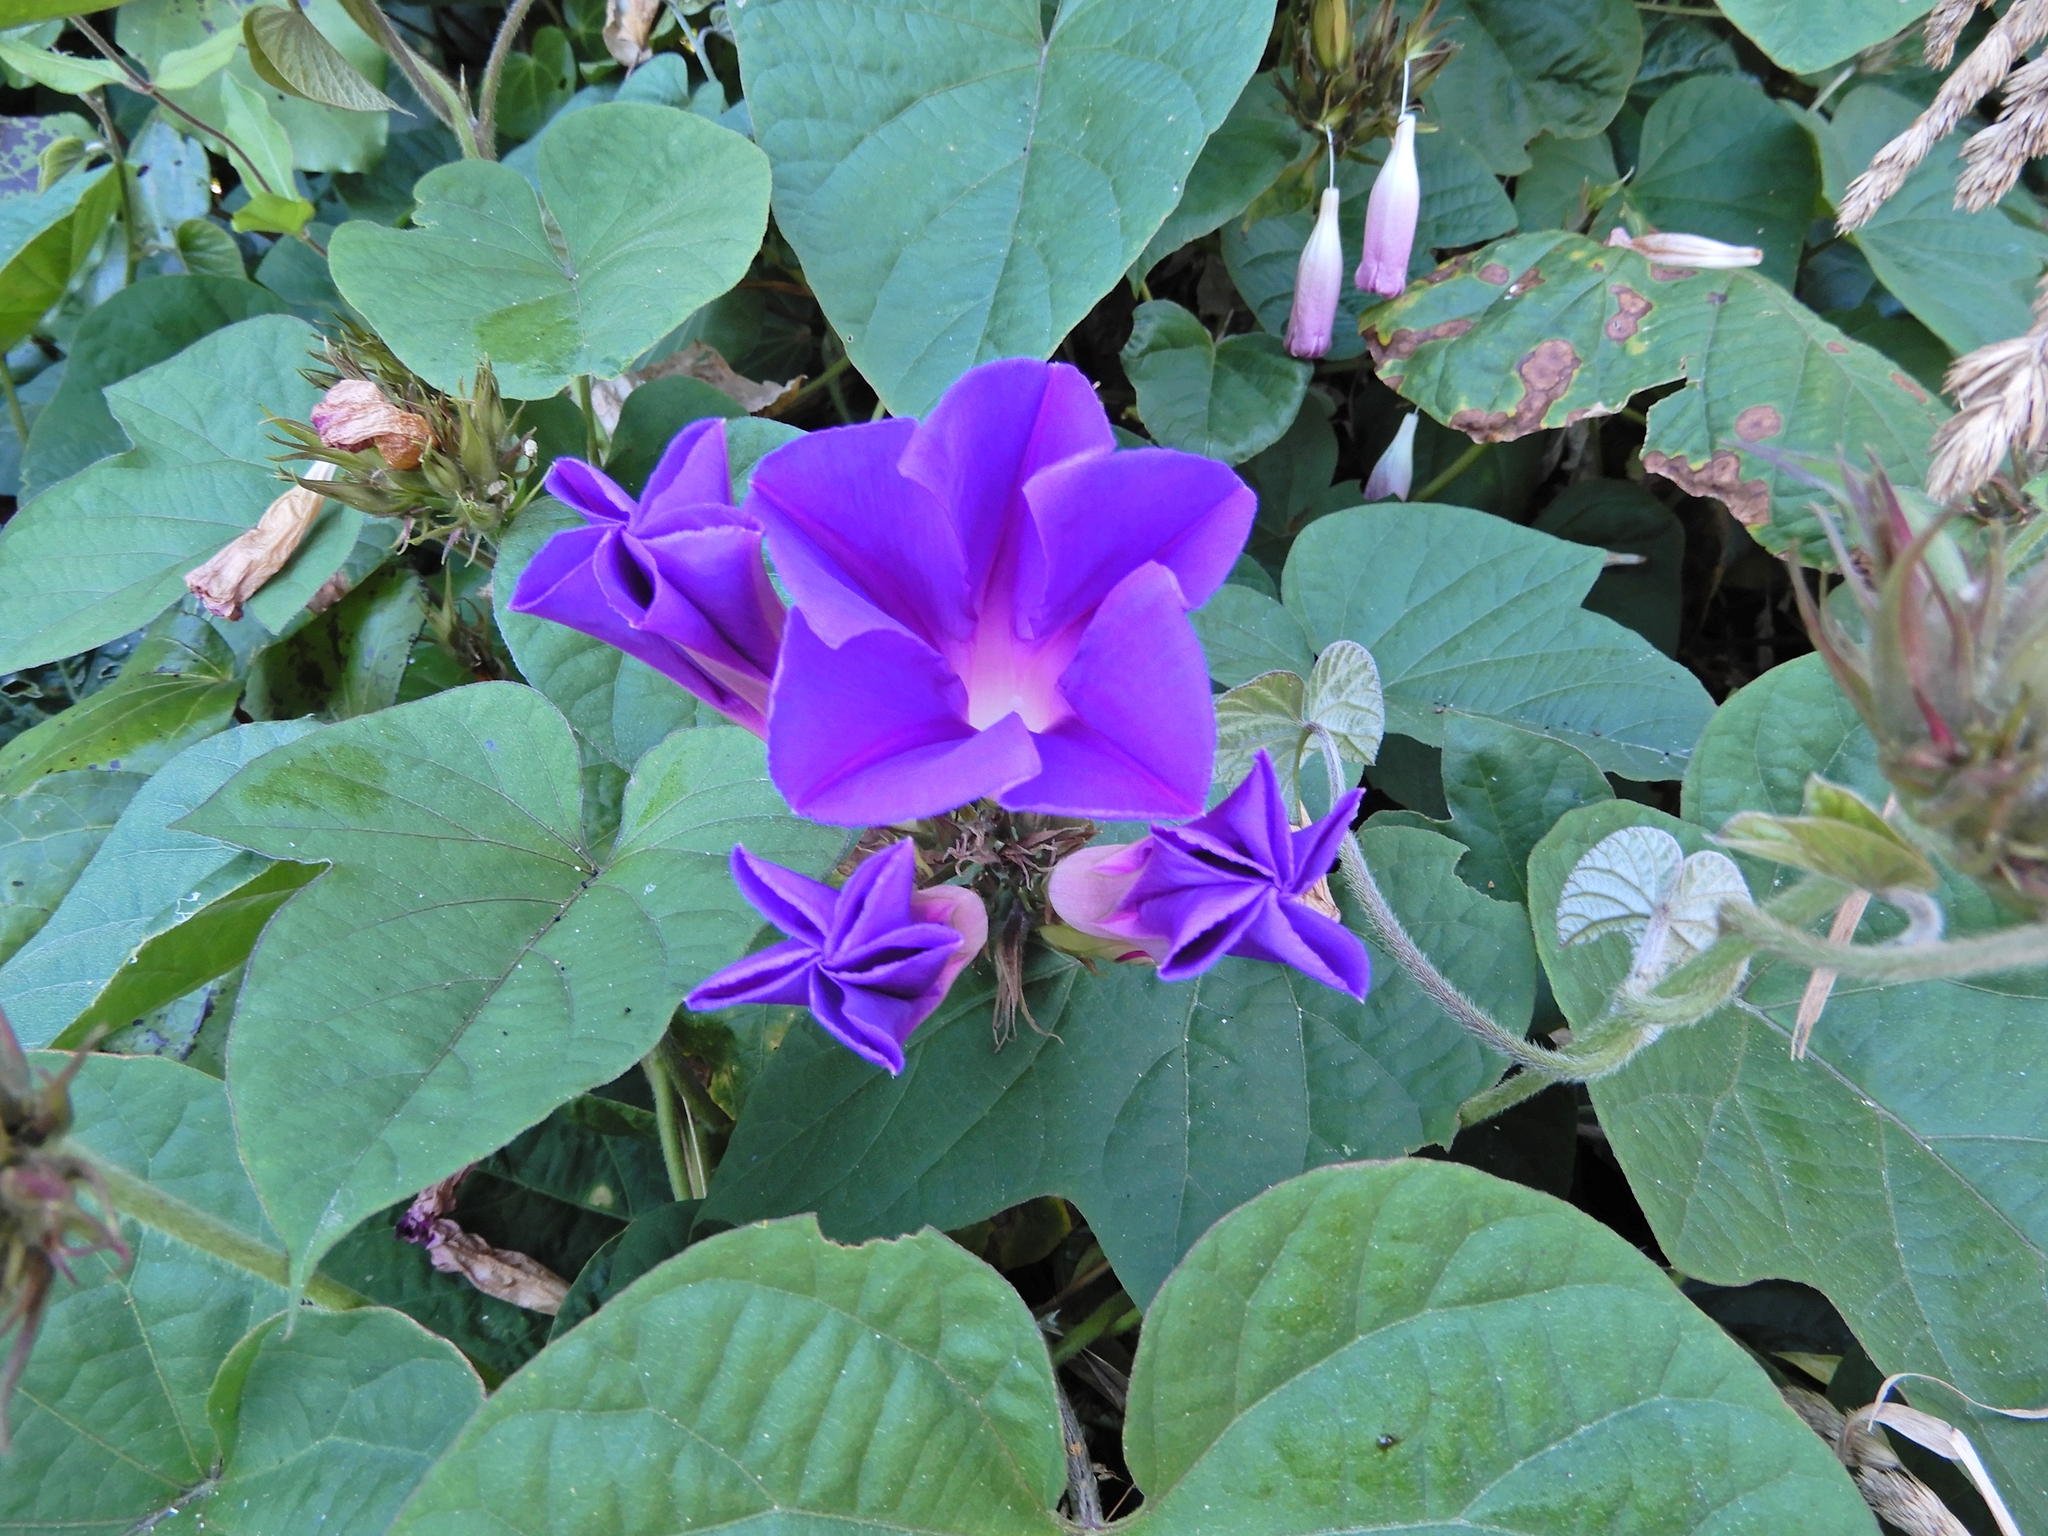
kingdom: Plantae
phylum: Tracheophyta
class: Magnoliopsida
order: Solanales
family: Convolvulaceae
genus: Ipomoea
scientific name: Ipomoea indica
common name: Blue dawnflower
